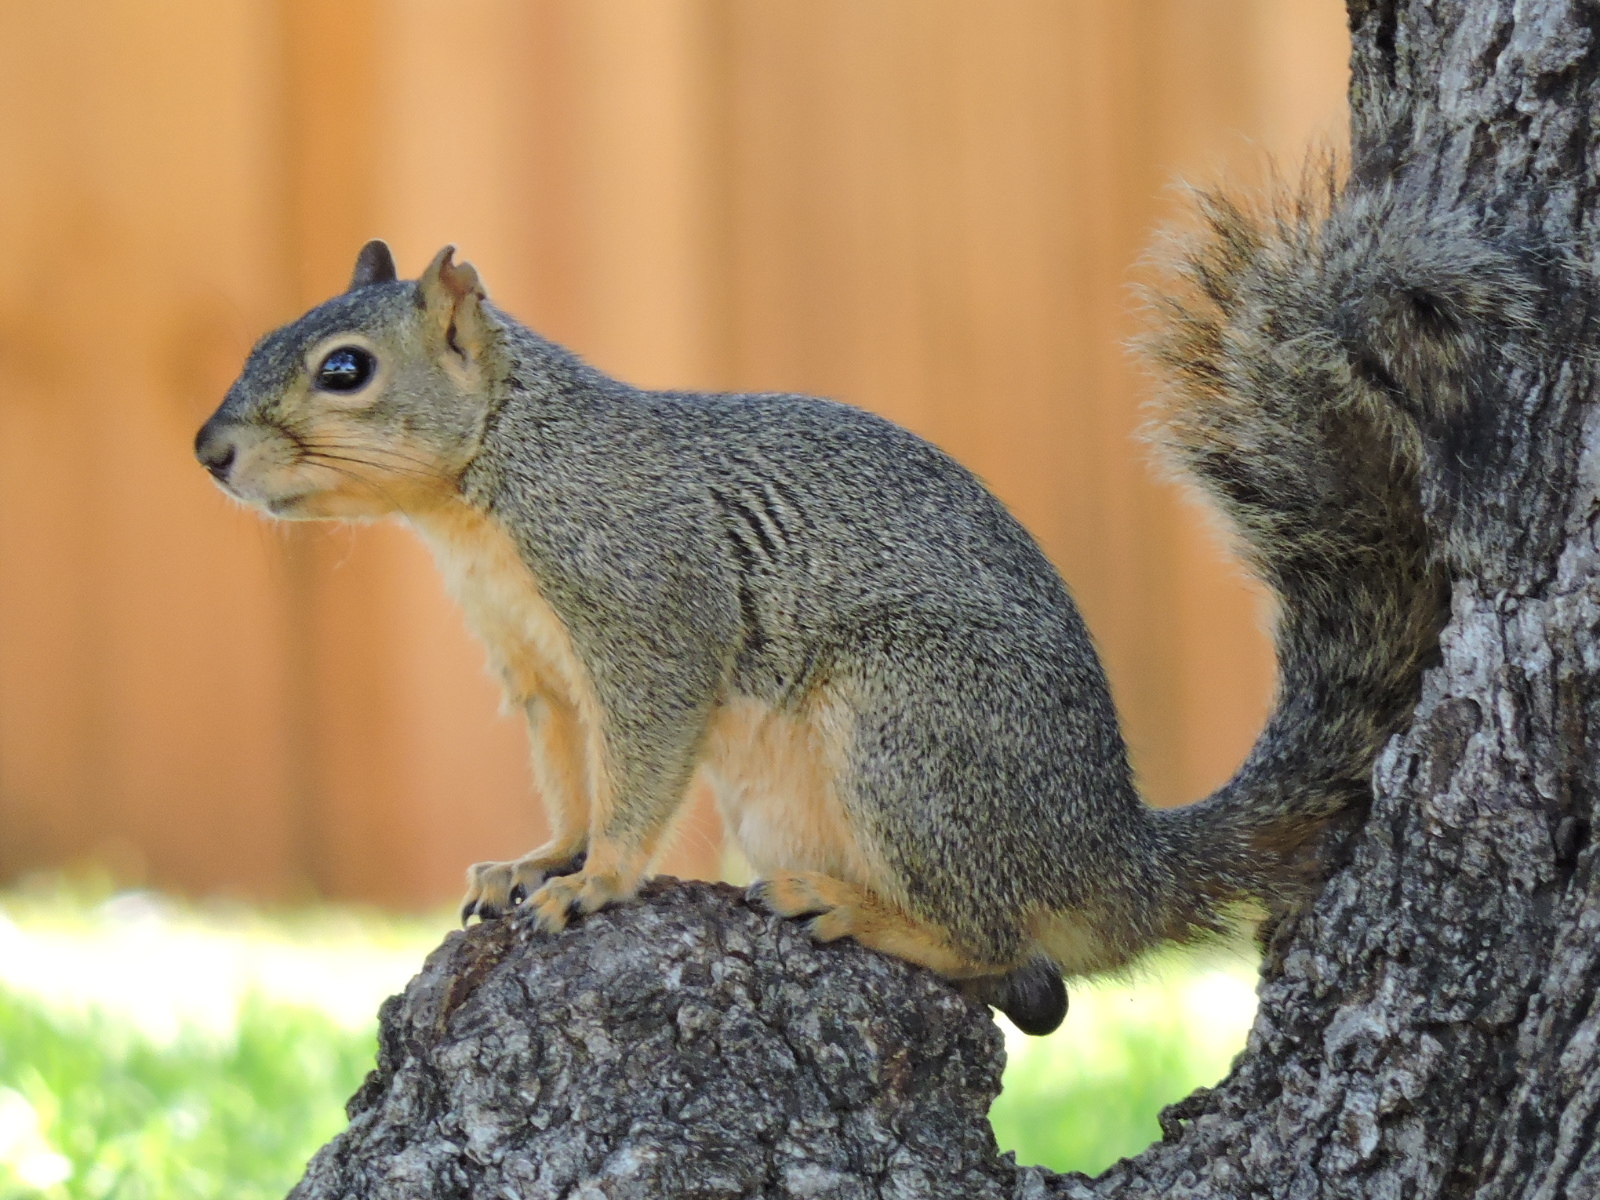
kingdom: Animalia
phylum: Chordata
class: Mammalia
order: Rodentia
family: Sciuridae
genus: Sciurus
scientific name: Sciurus niger
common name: Fox squirrel
